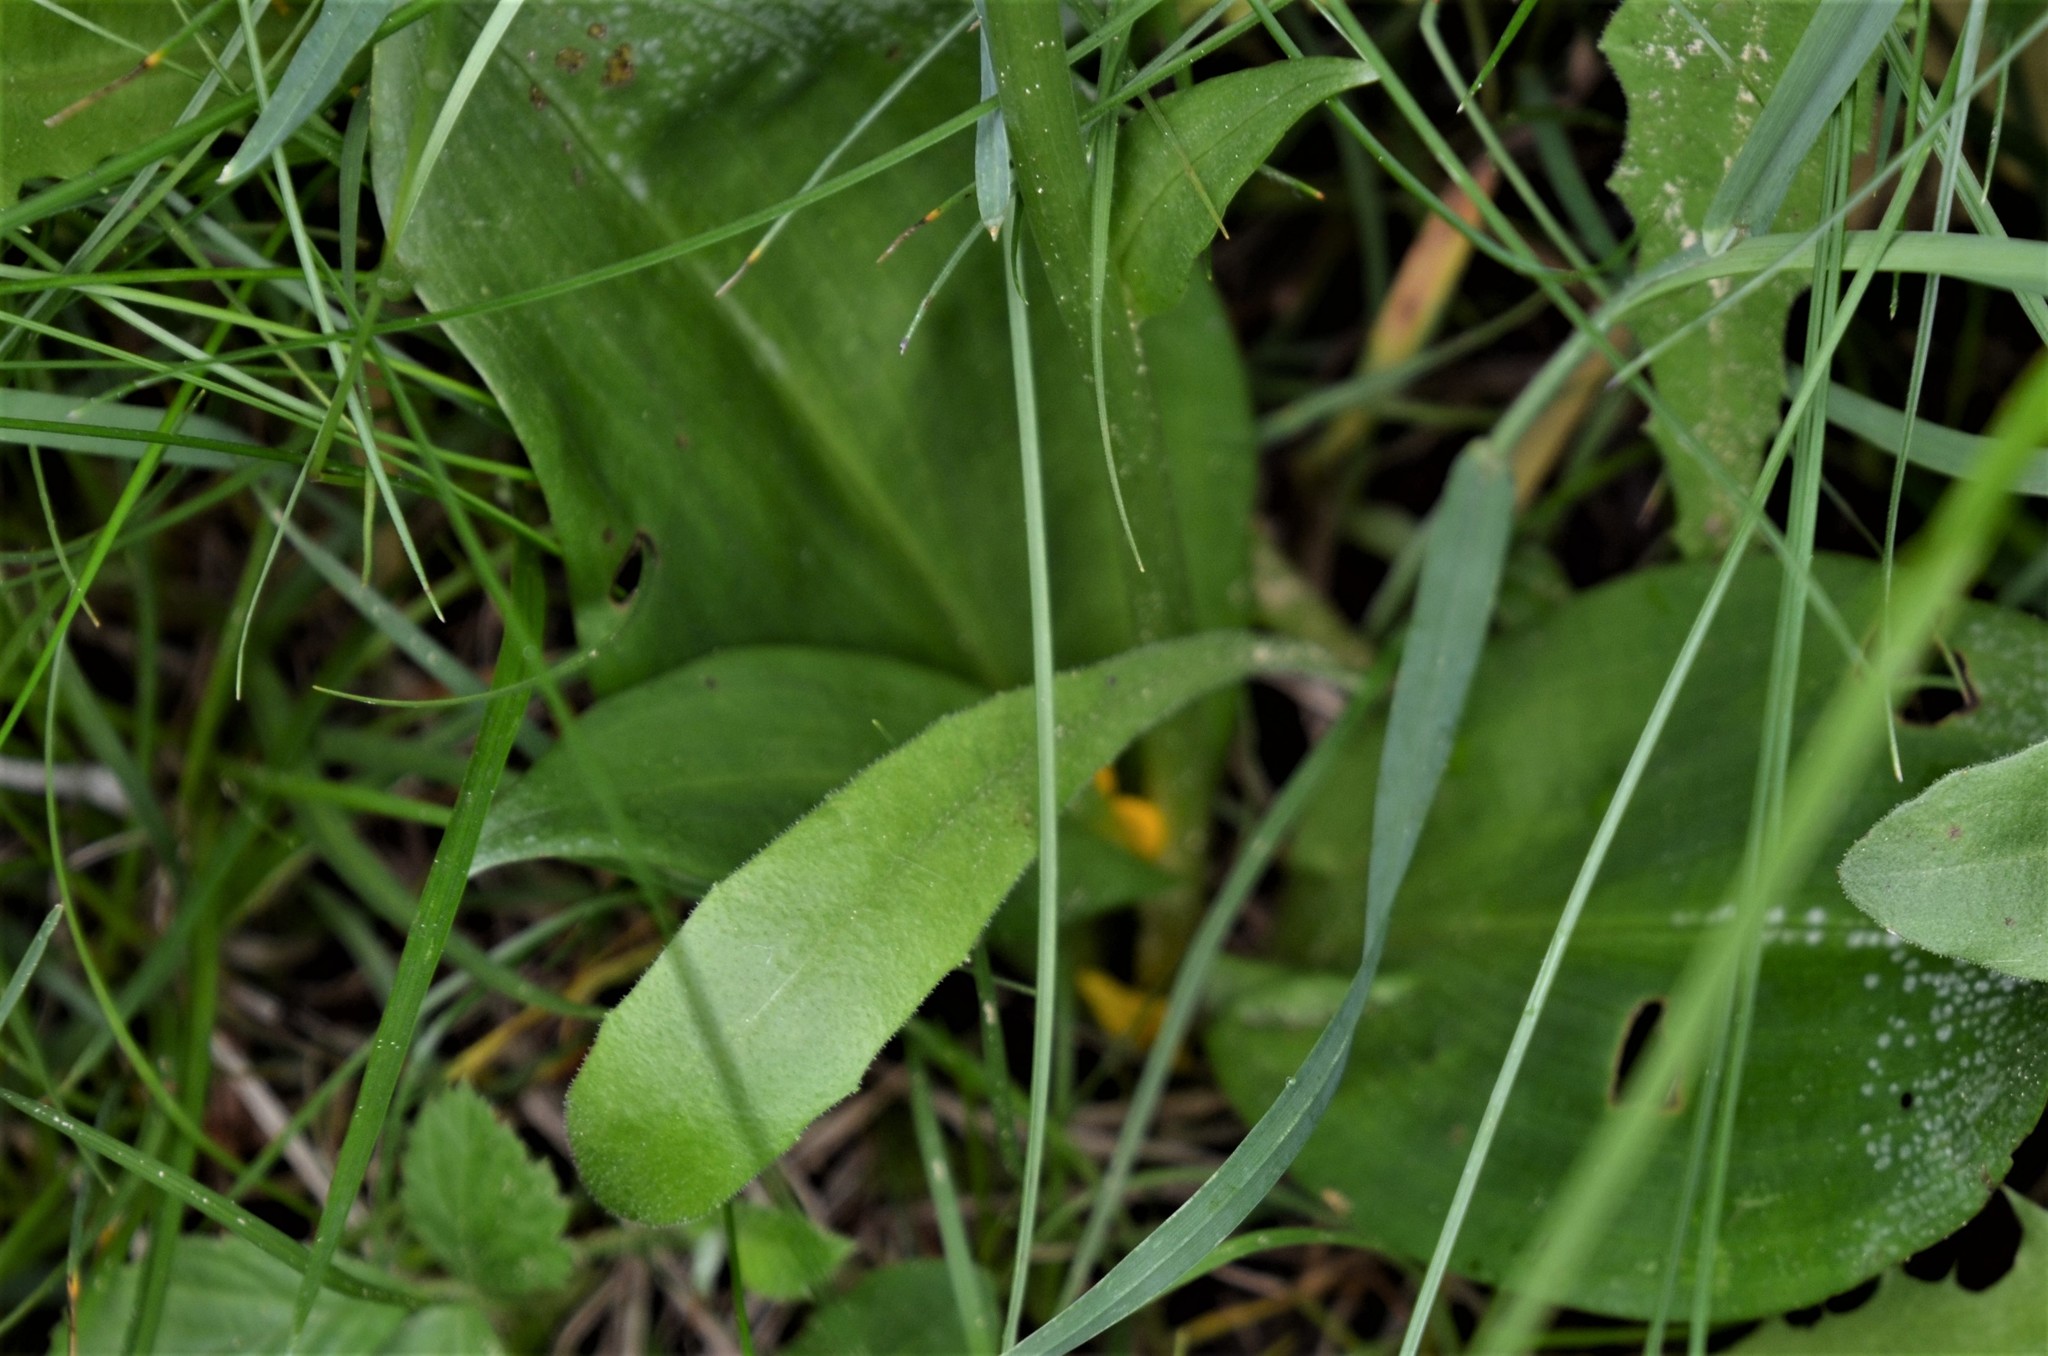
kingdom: Plantae
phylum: Tracheophyta
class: Liliopsida
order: Asparagales
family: Orchidaceae
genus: Platanthera
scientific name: Platanthera bifolia
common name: Lesser butterfly-orchid
